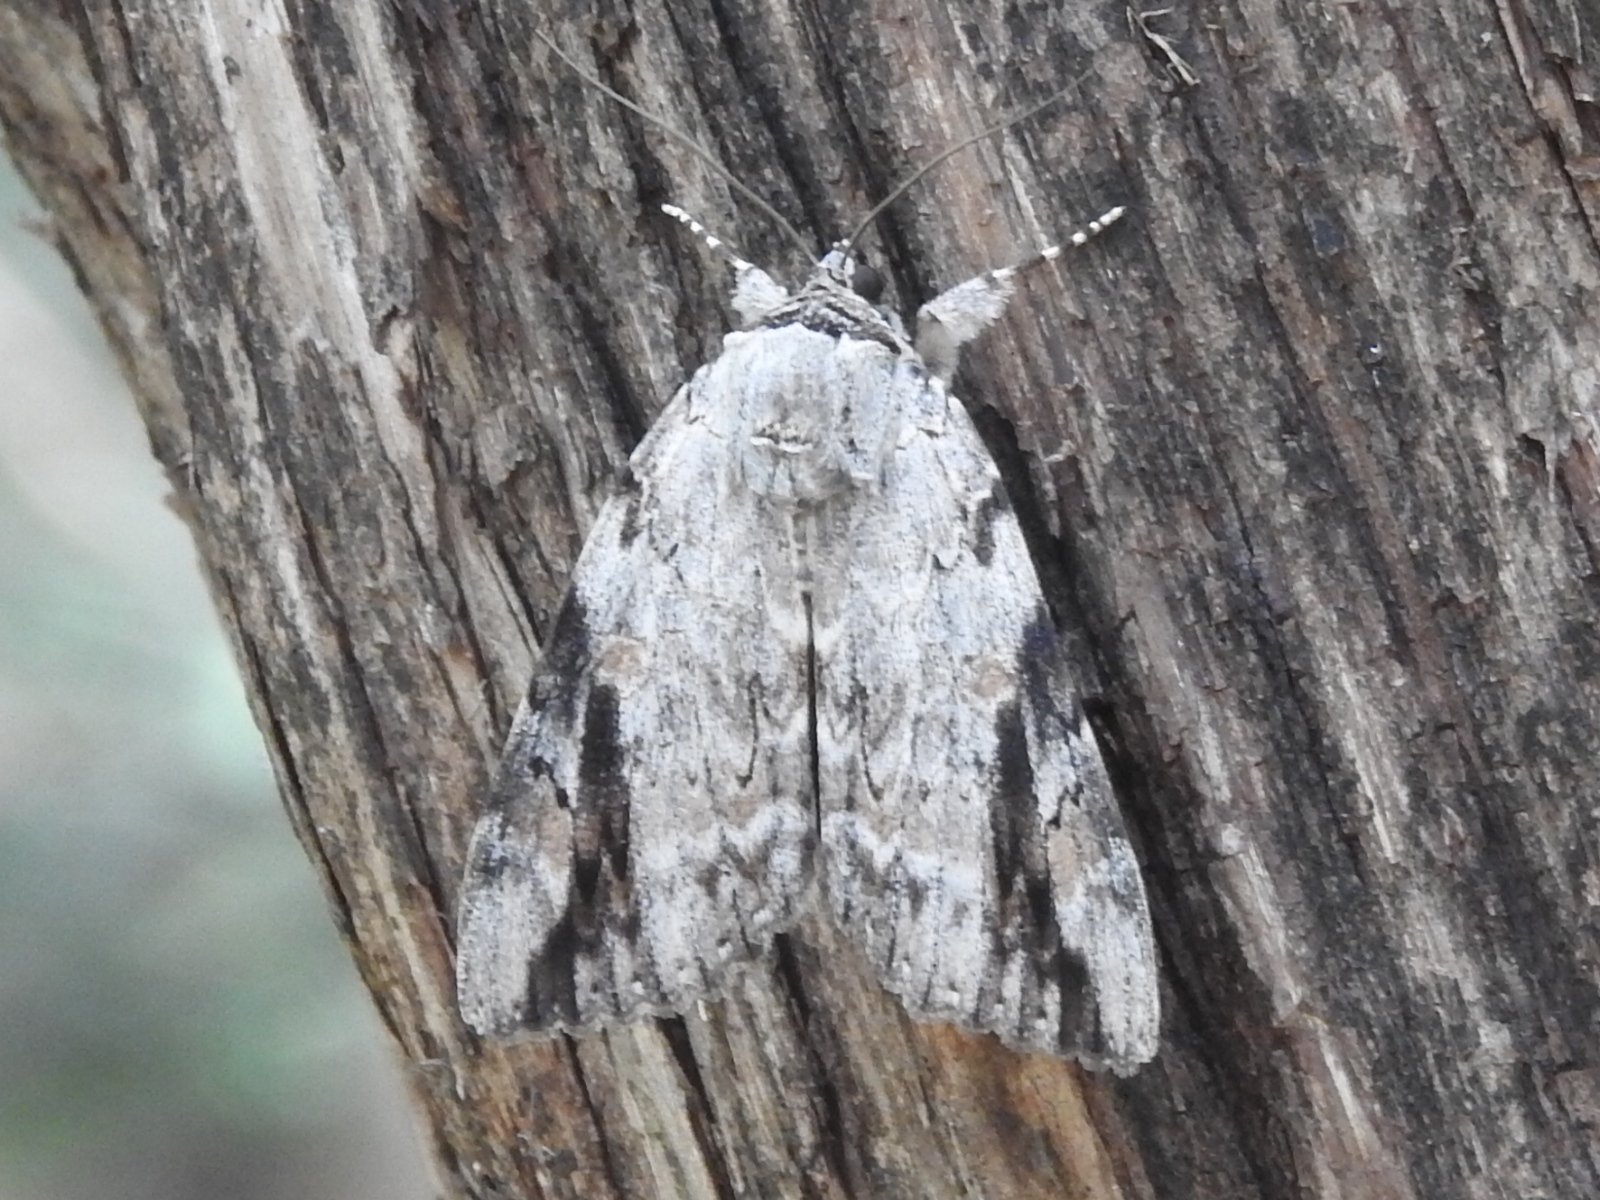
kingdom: Animalia
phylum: Arthropoda
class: Insecta
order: Lepidoptera
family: Erebidae
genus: Catocala
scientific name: Catocala maestosa
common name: Sad underwing
